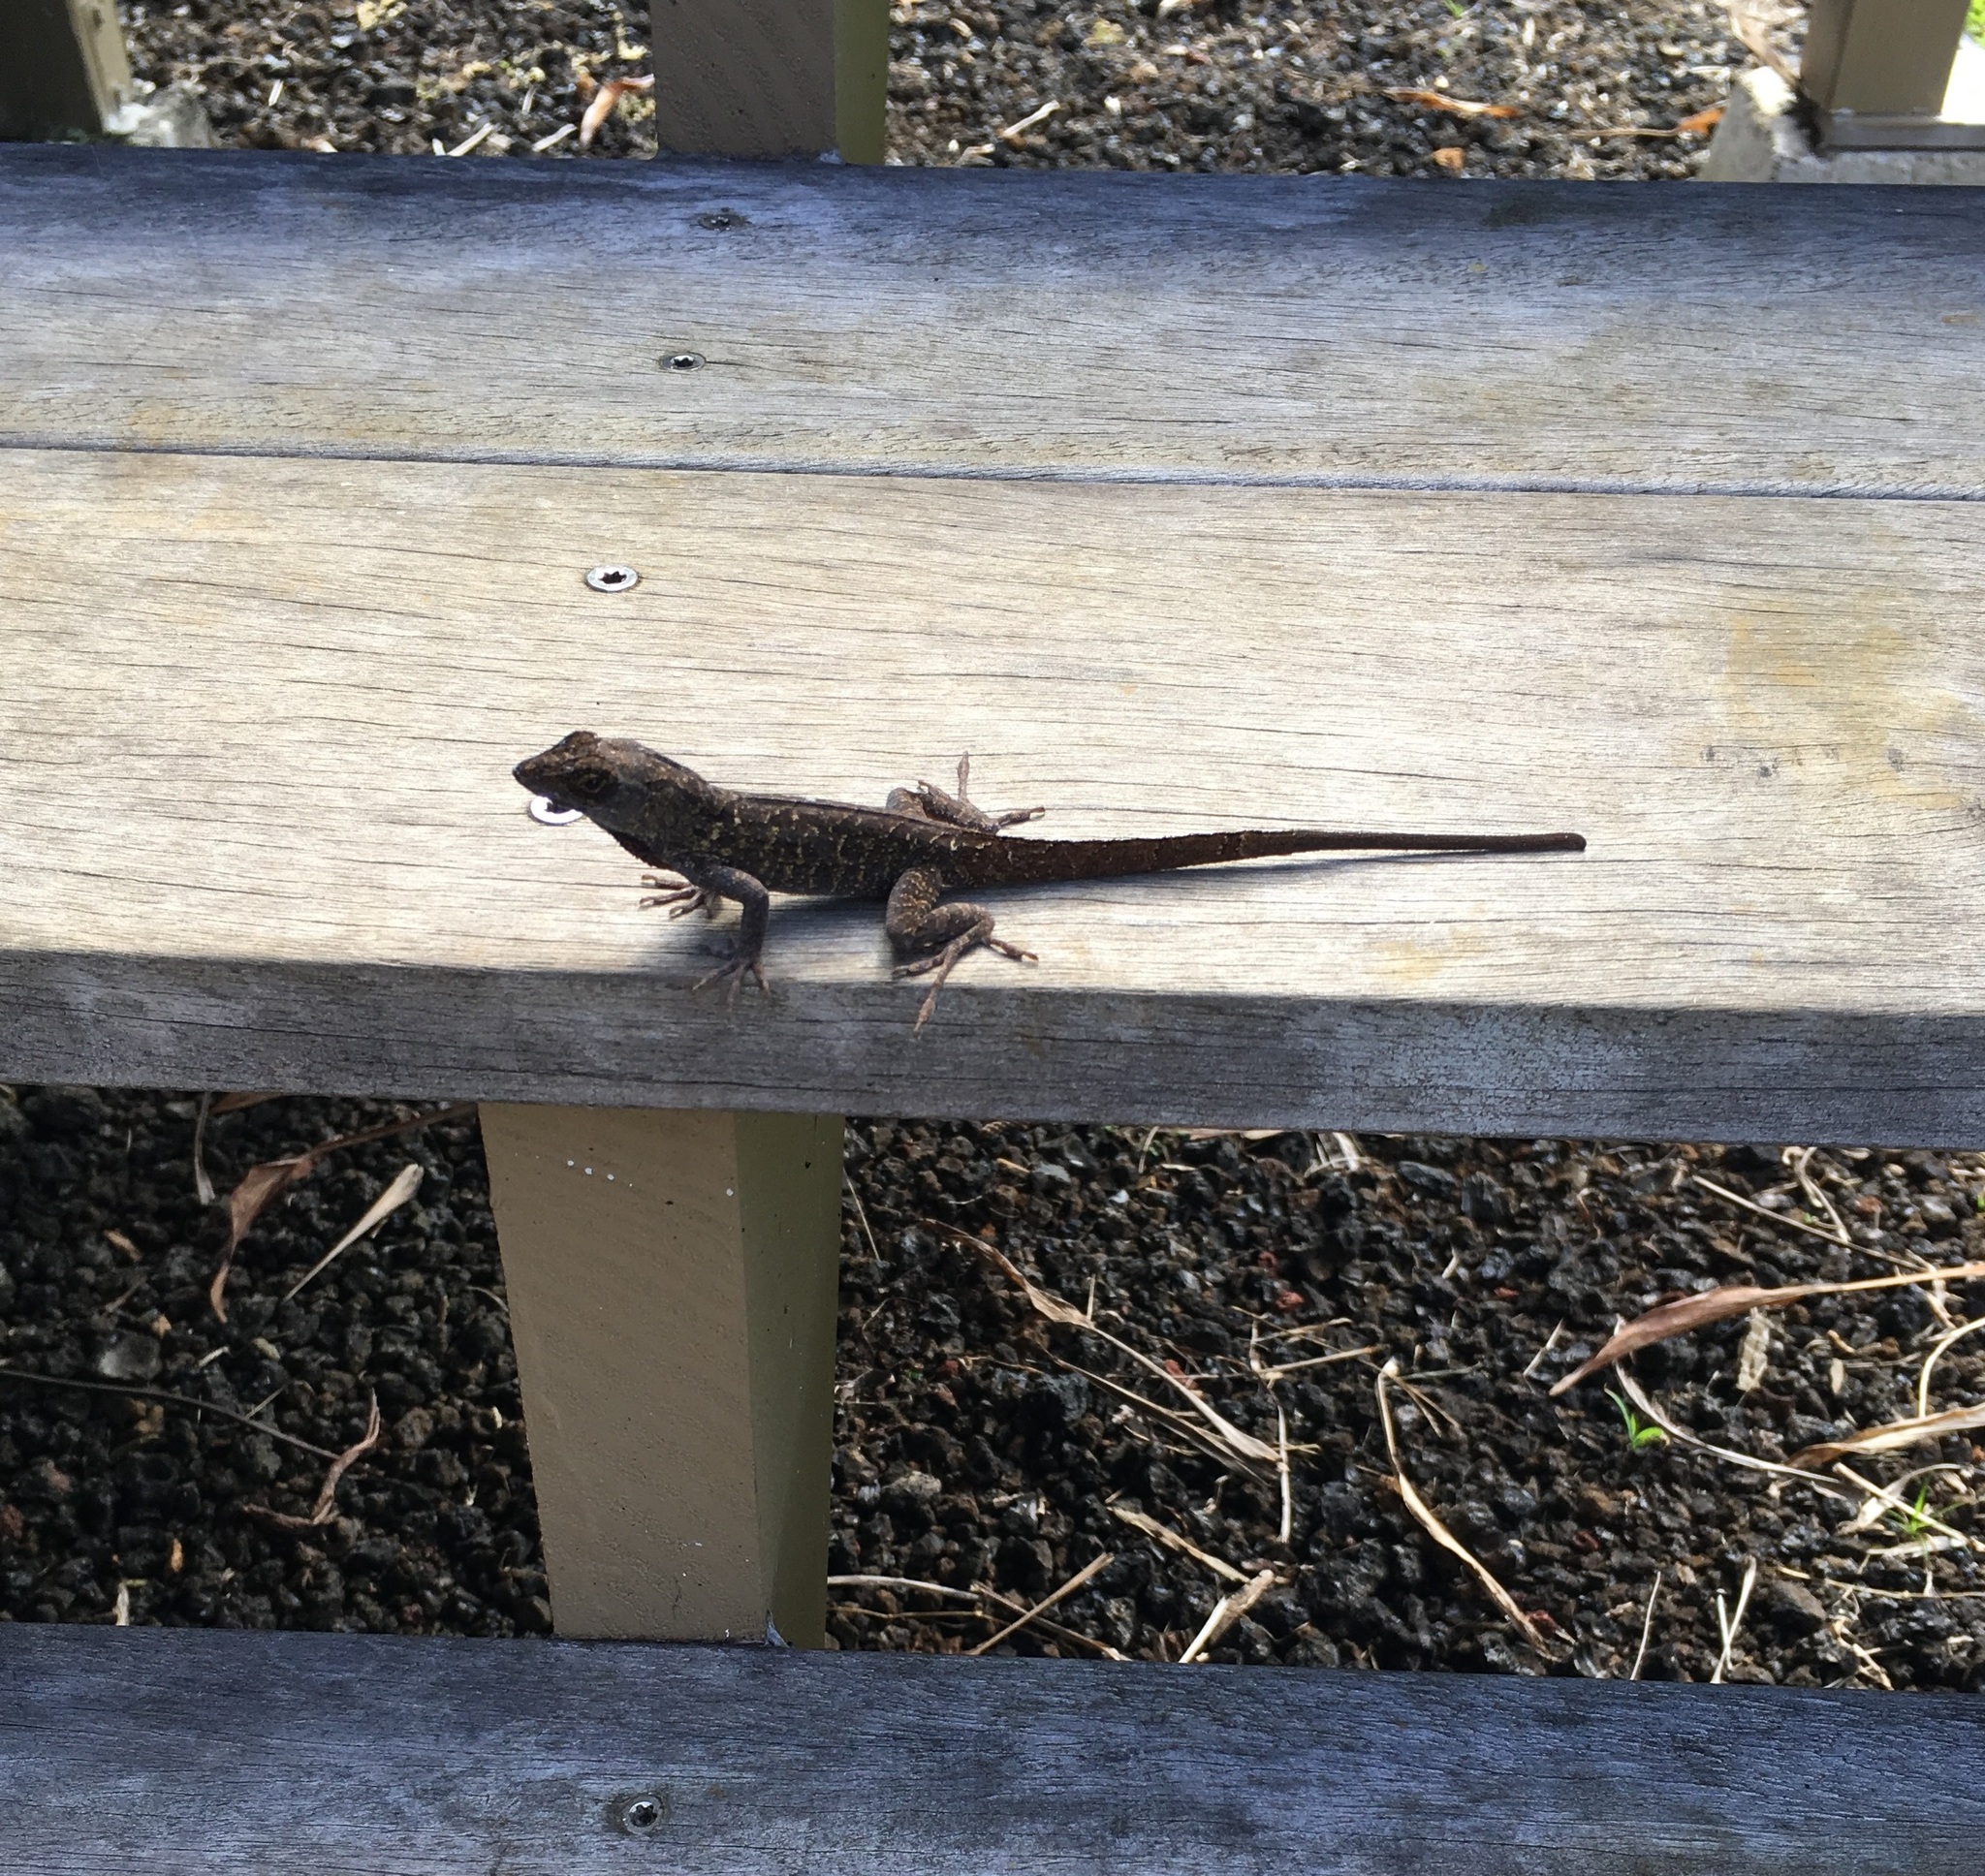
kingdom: Animalia
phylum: Chordata
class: Squamata
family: Dactyloidae
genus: Anolis
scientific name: Anolis sagrei
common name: Brown anole
